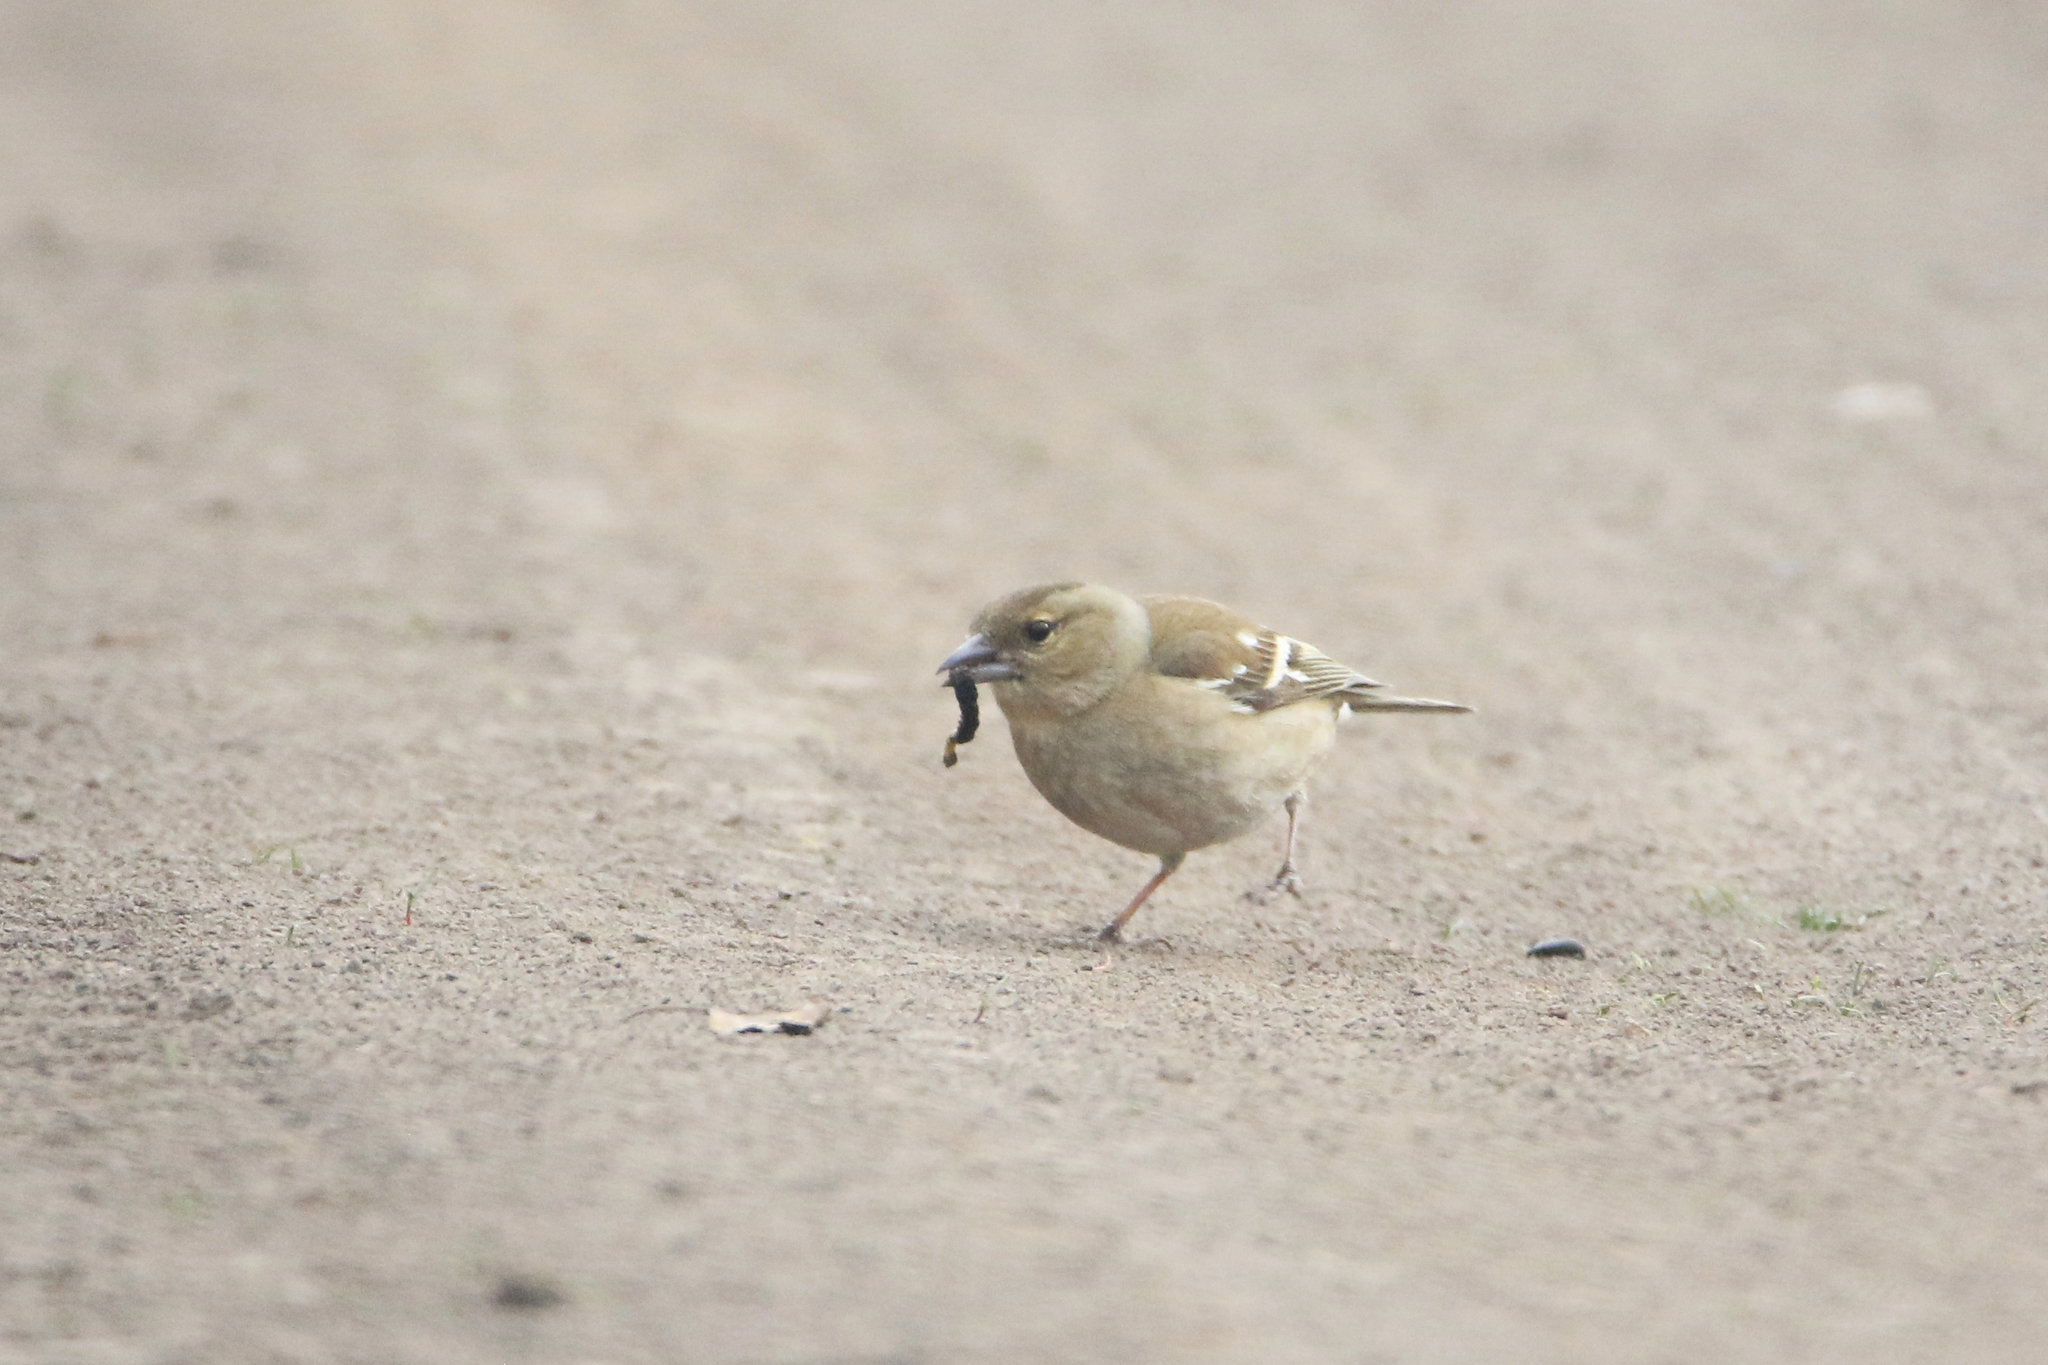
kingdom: Animalia
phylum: Chordata
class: Aves
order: Passeriformes
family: Fringillidae
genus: Fringilla
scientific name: Fringilla coelebs
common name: Common chaffinch
